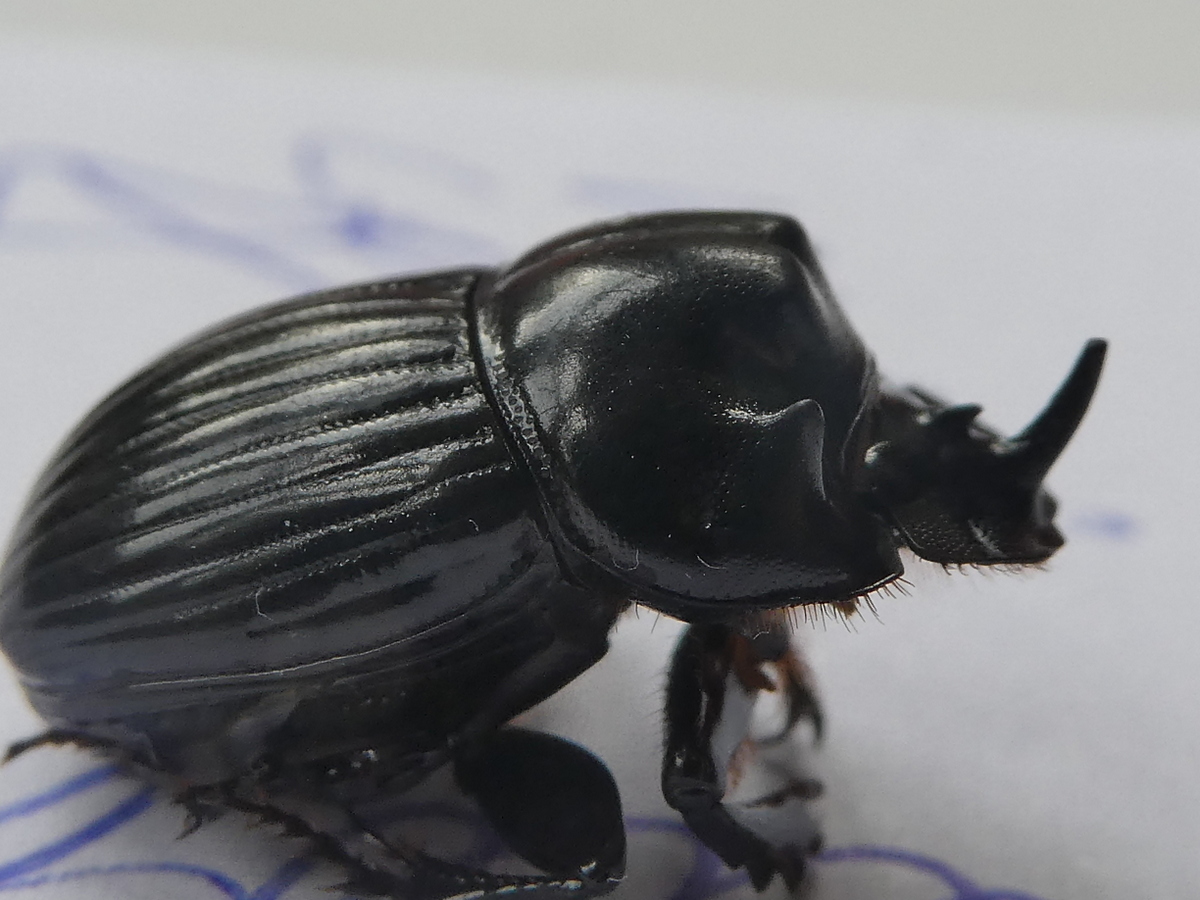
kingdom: Animalia
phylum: Arthropoda
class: Insecta
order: Coleoptera
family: Scarabaeidae
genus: Copris
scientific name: Copris incertus
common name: Uncertain dung beetle
